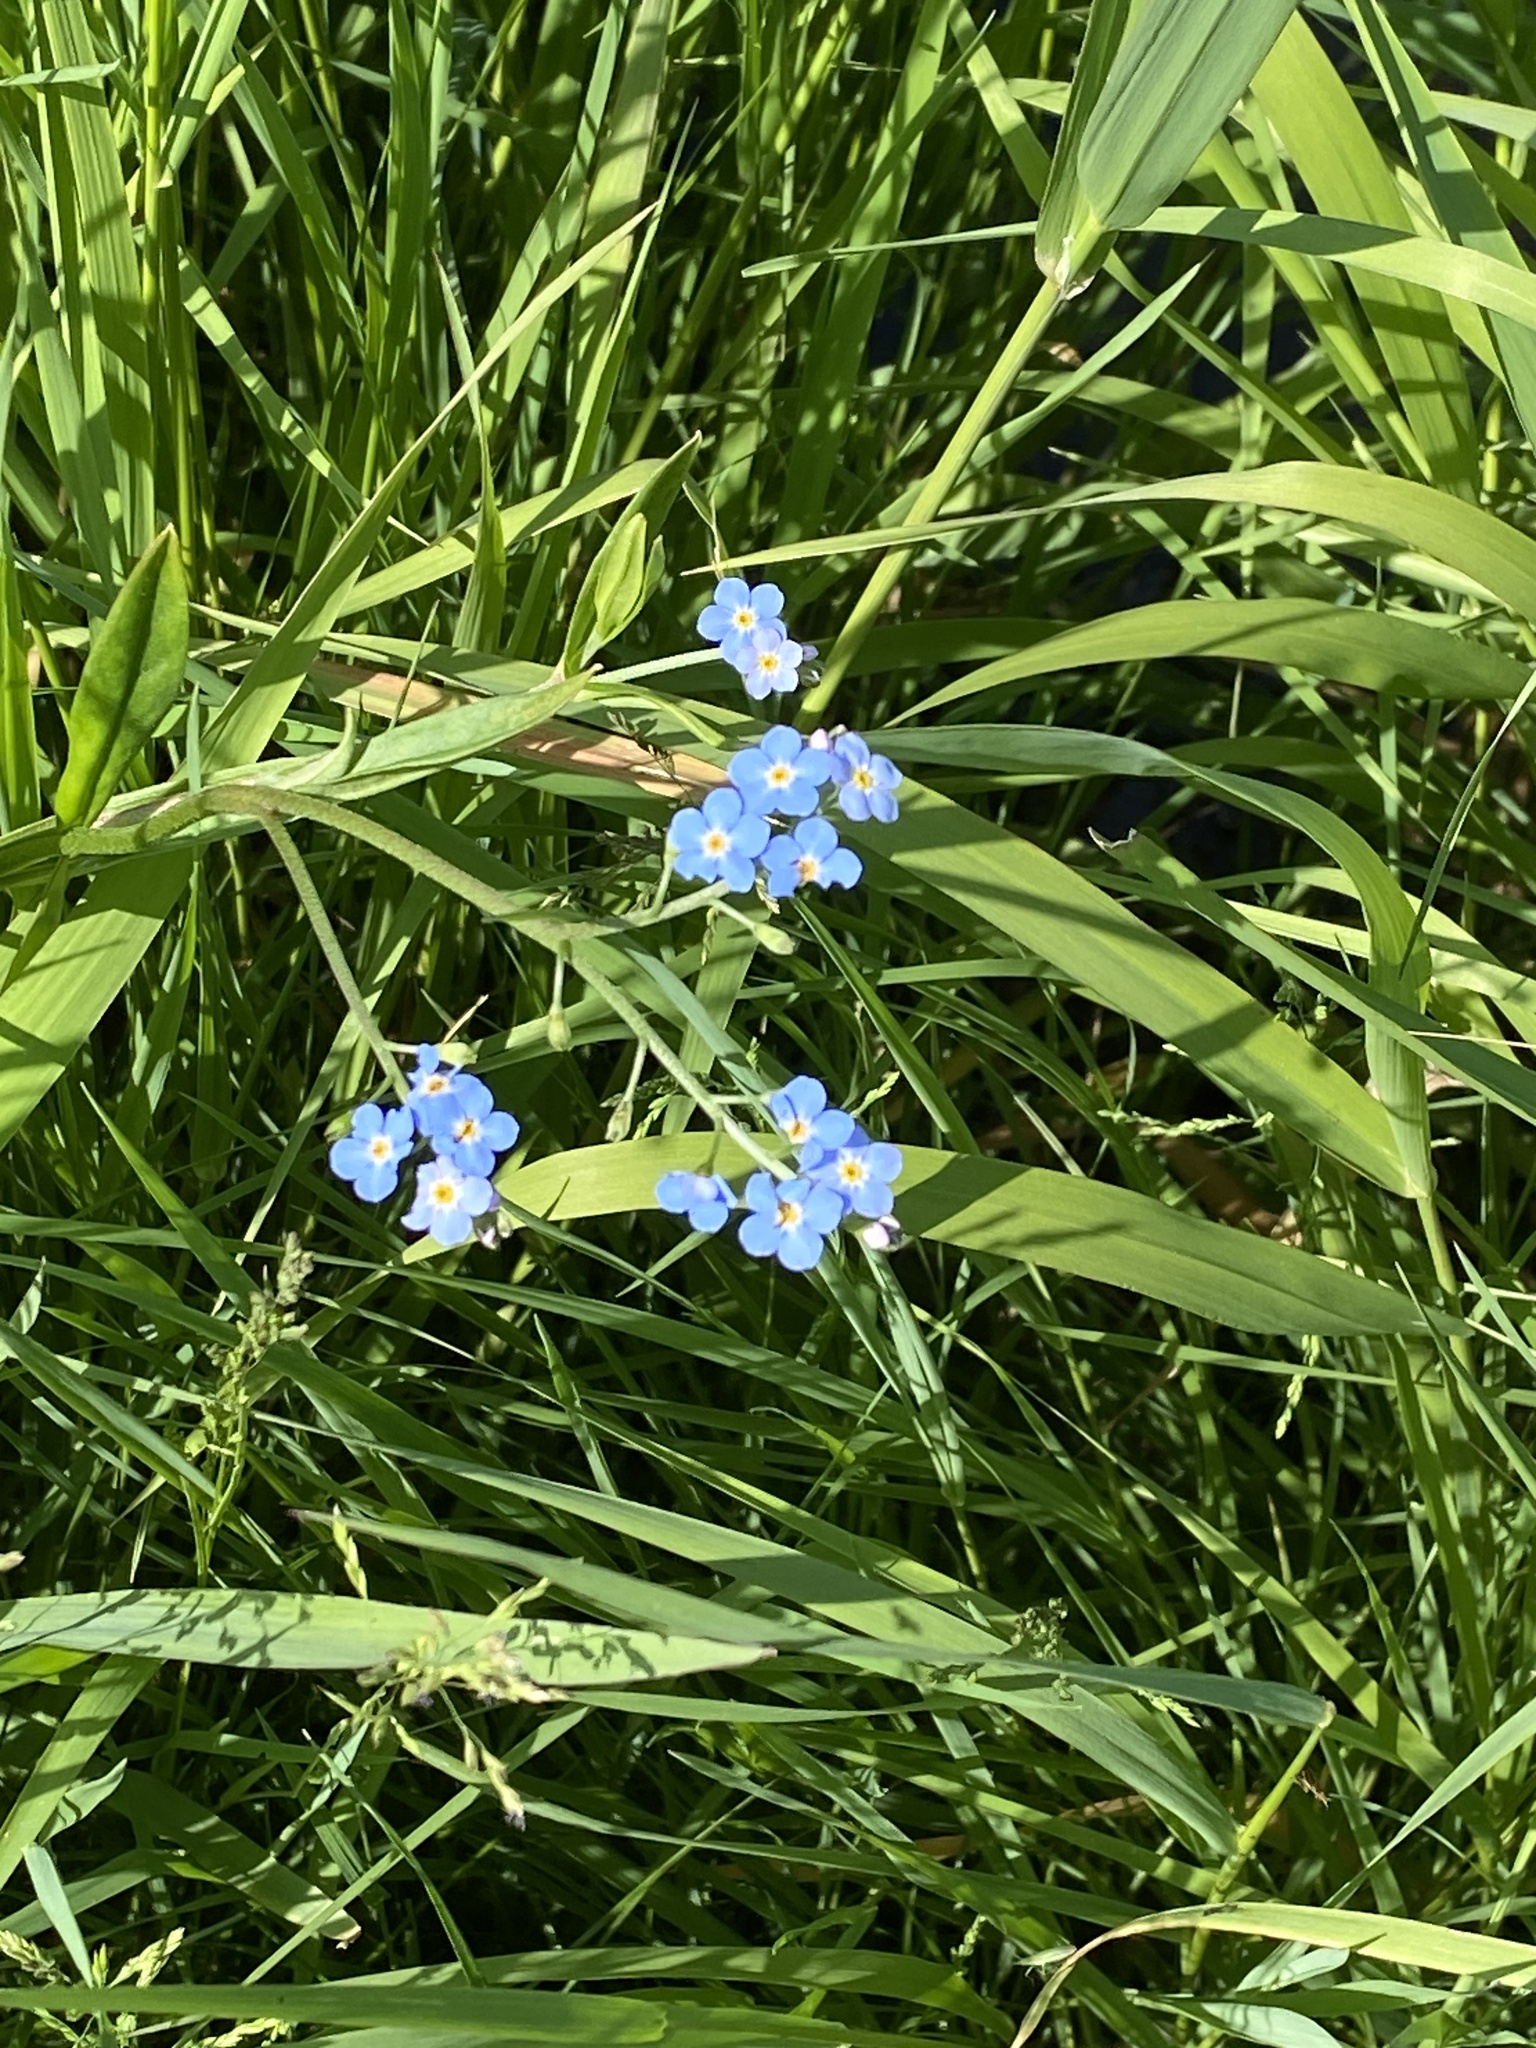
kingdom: Plantae
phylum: Tracheophyta
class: Magnoliopsida
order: Boraginales
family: Boraginaceae
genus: Myosotis
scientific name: Myosotis scorpioides
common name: Water forget-me-not
